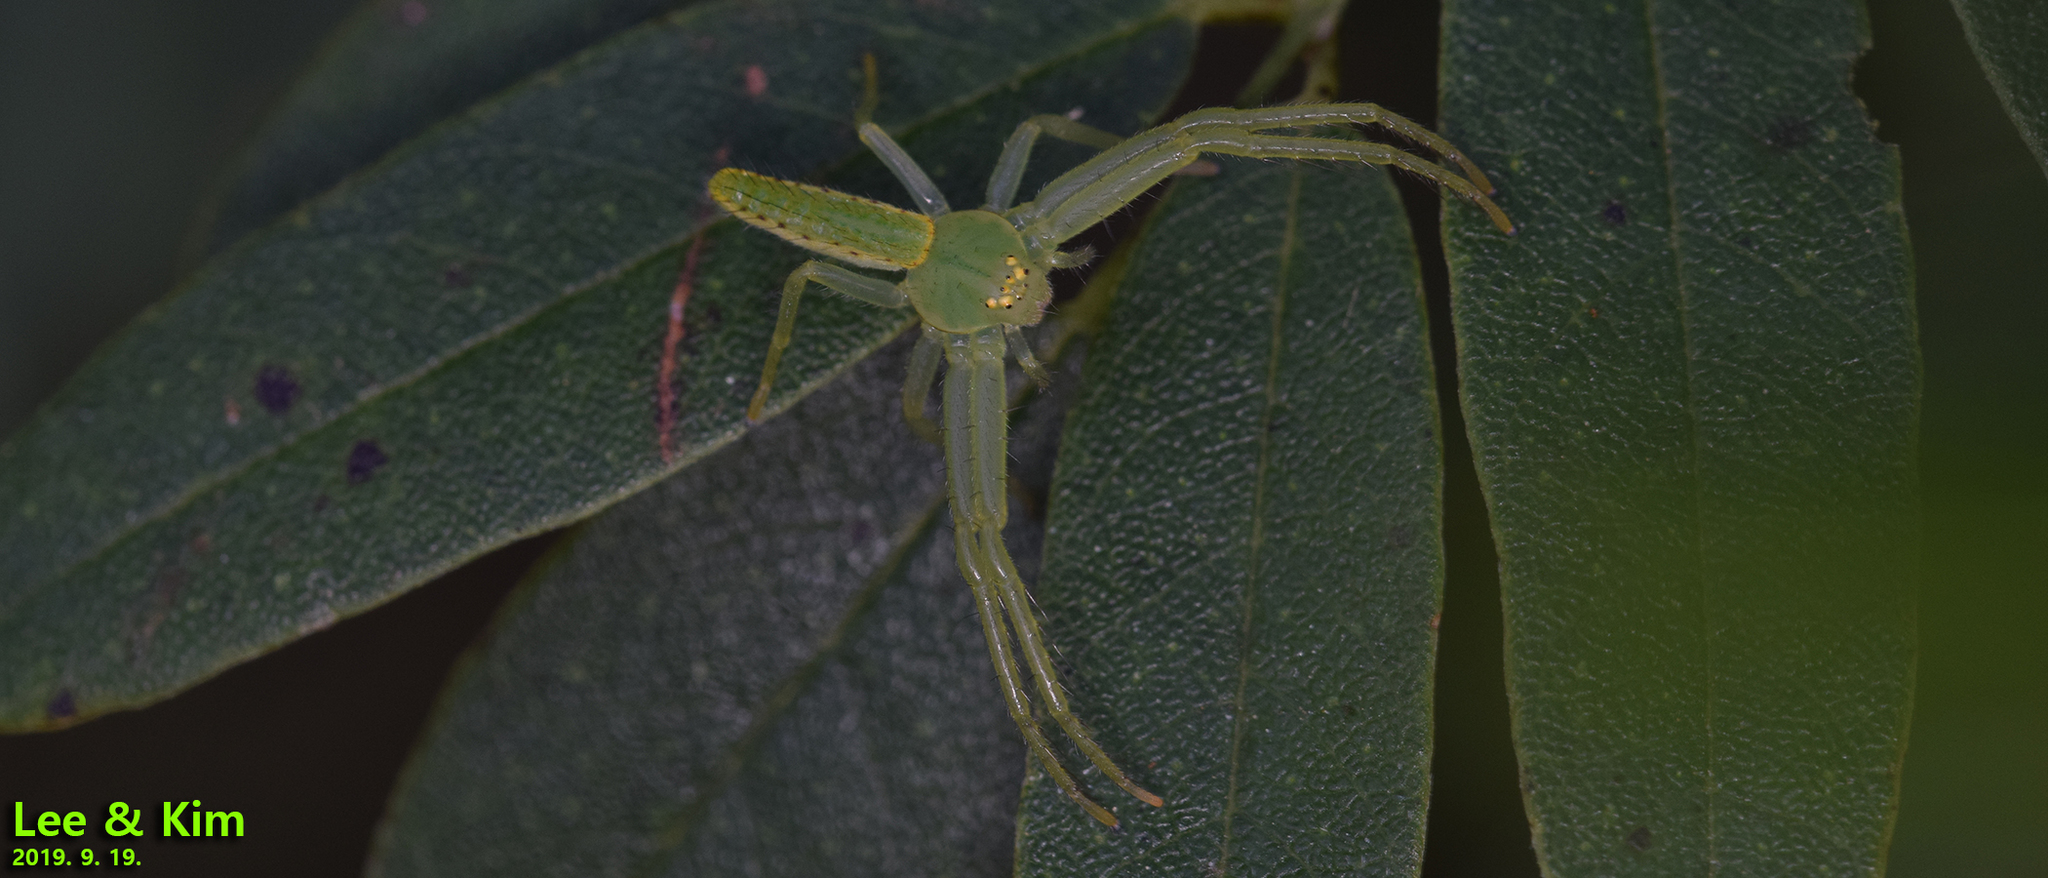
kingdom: Animalia
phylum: Arthropoda
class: Arachnida
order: Araneae
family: Thomisidae
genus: Oxytate
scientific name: Oxytate parallela
